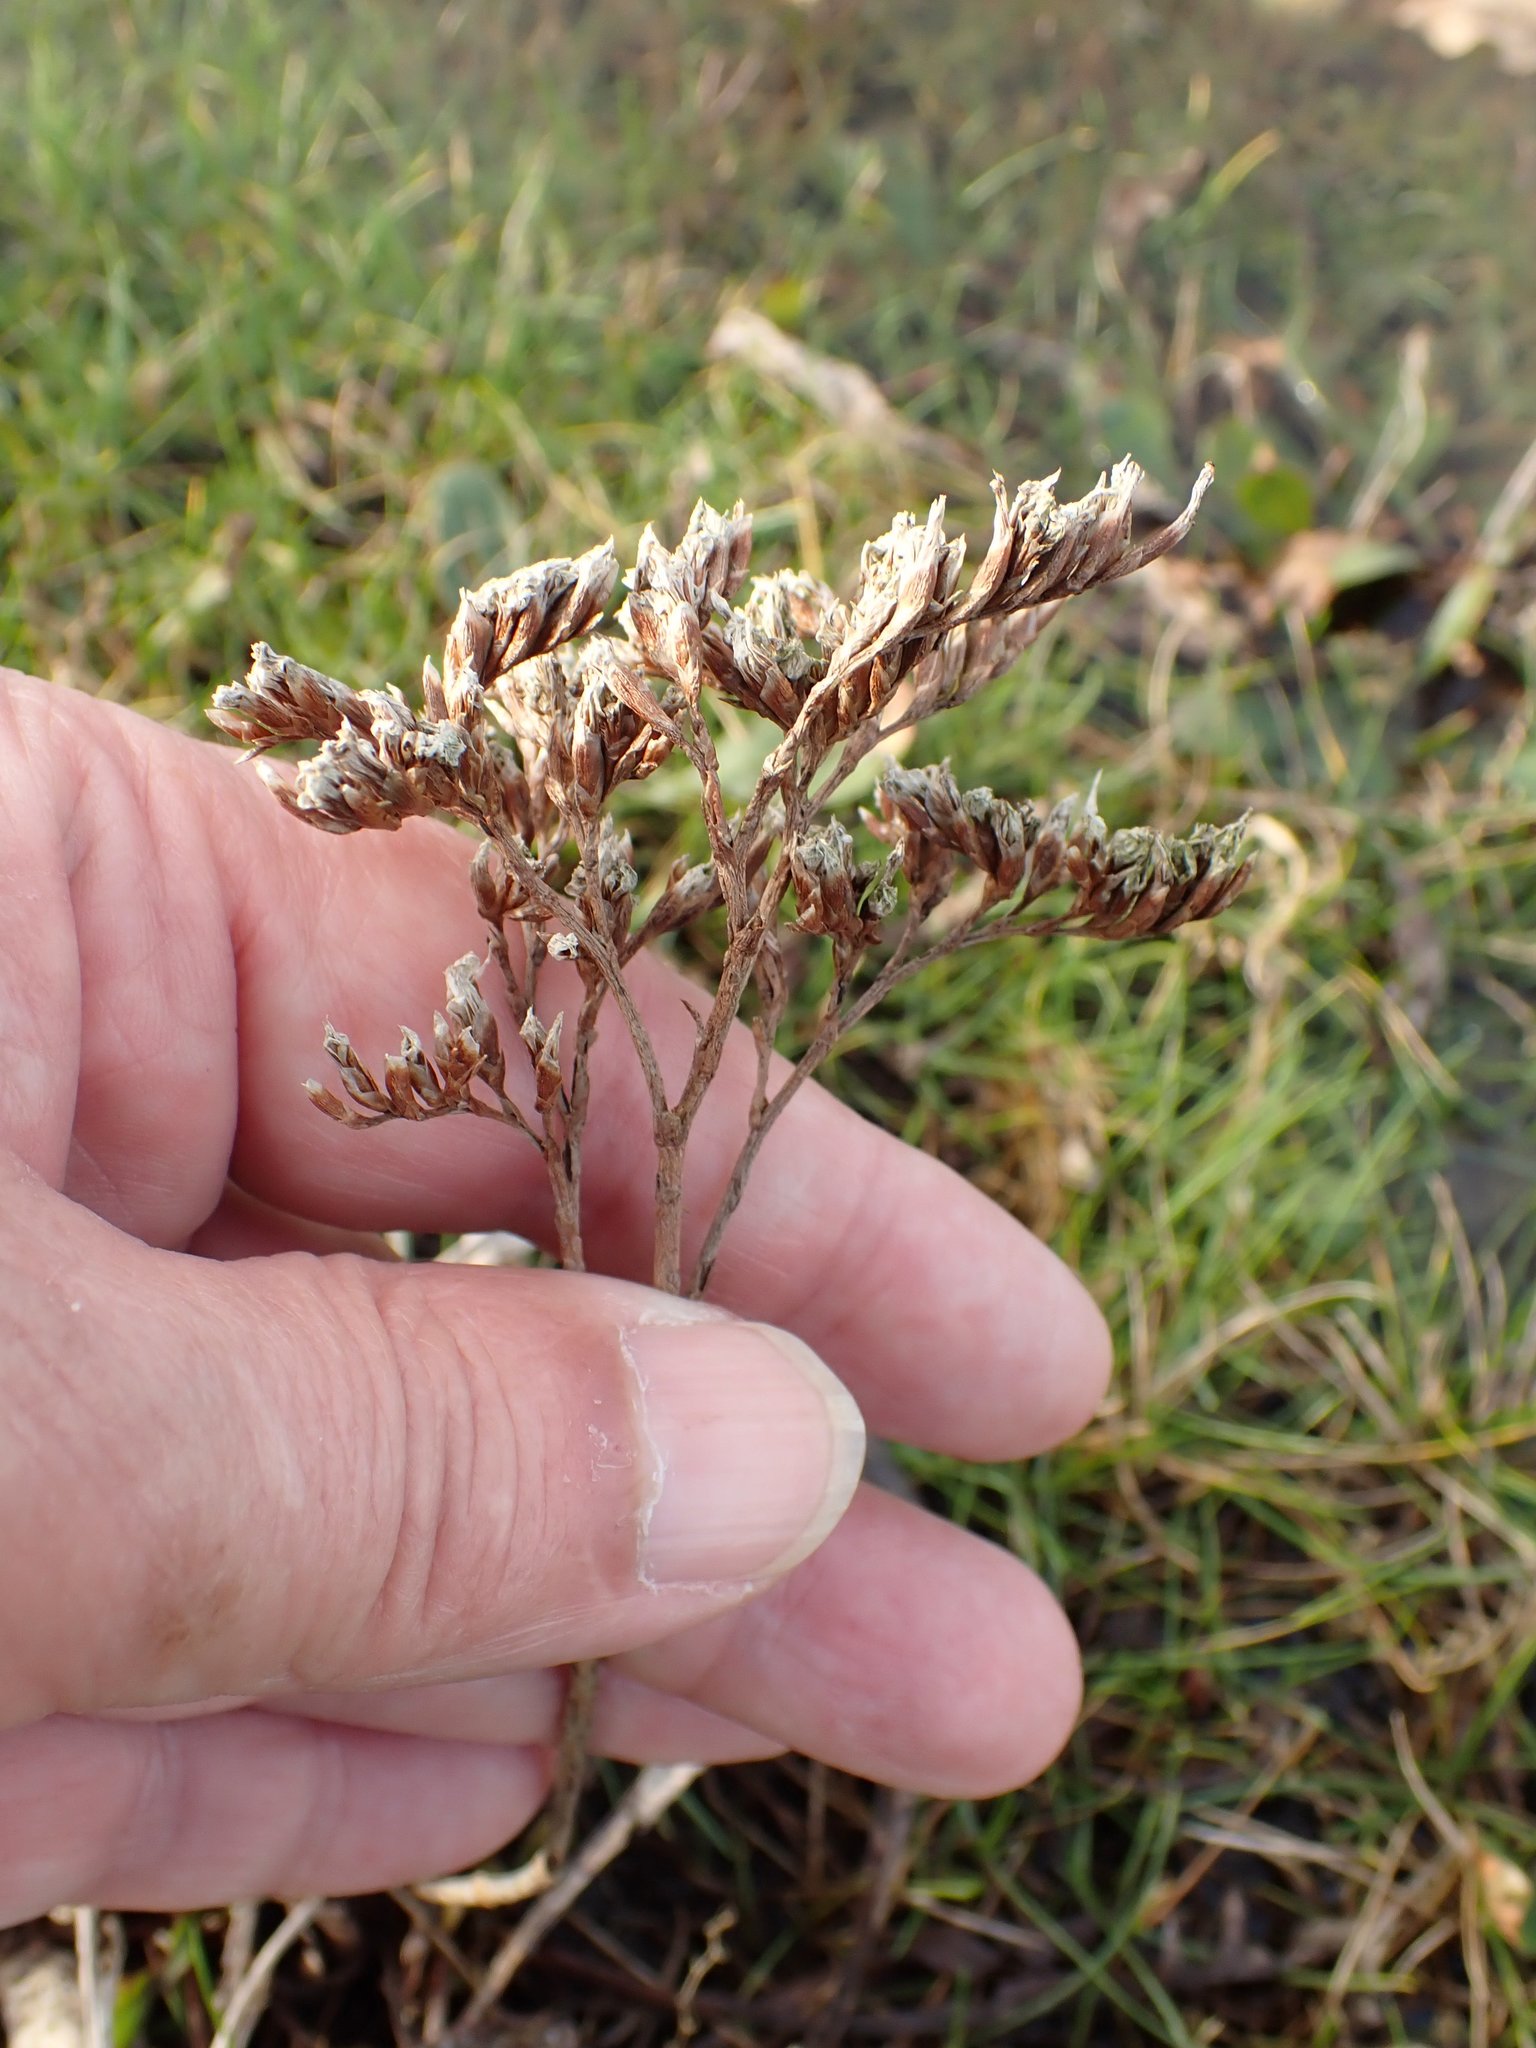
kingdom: Plantae
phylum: Tracheophyta
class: Magnoliopsida
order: Caryophyllales
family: Plumbaginaceae
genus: Limonium
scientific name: Limonium vulgare
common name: Common sea-lavender
